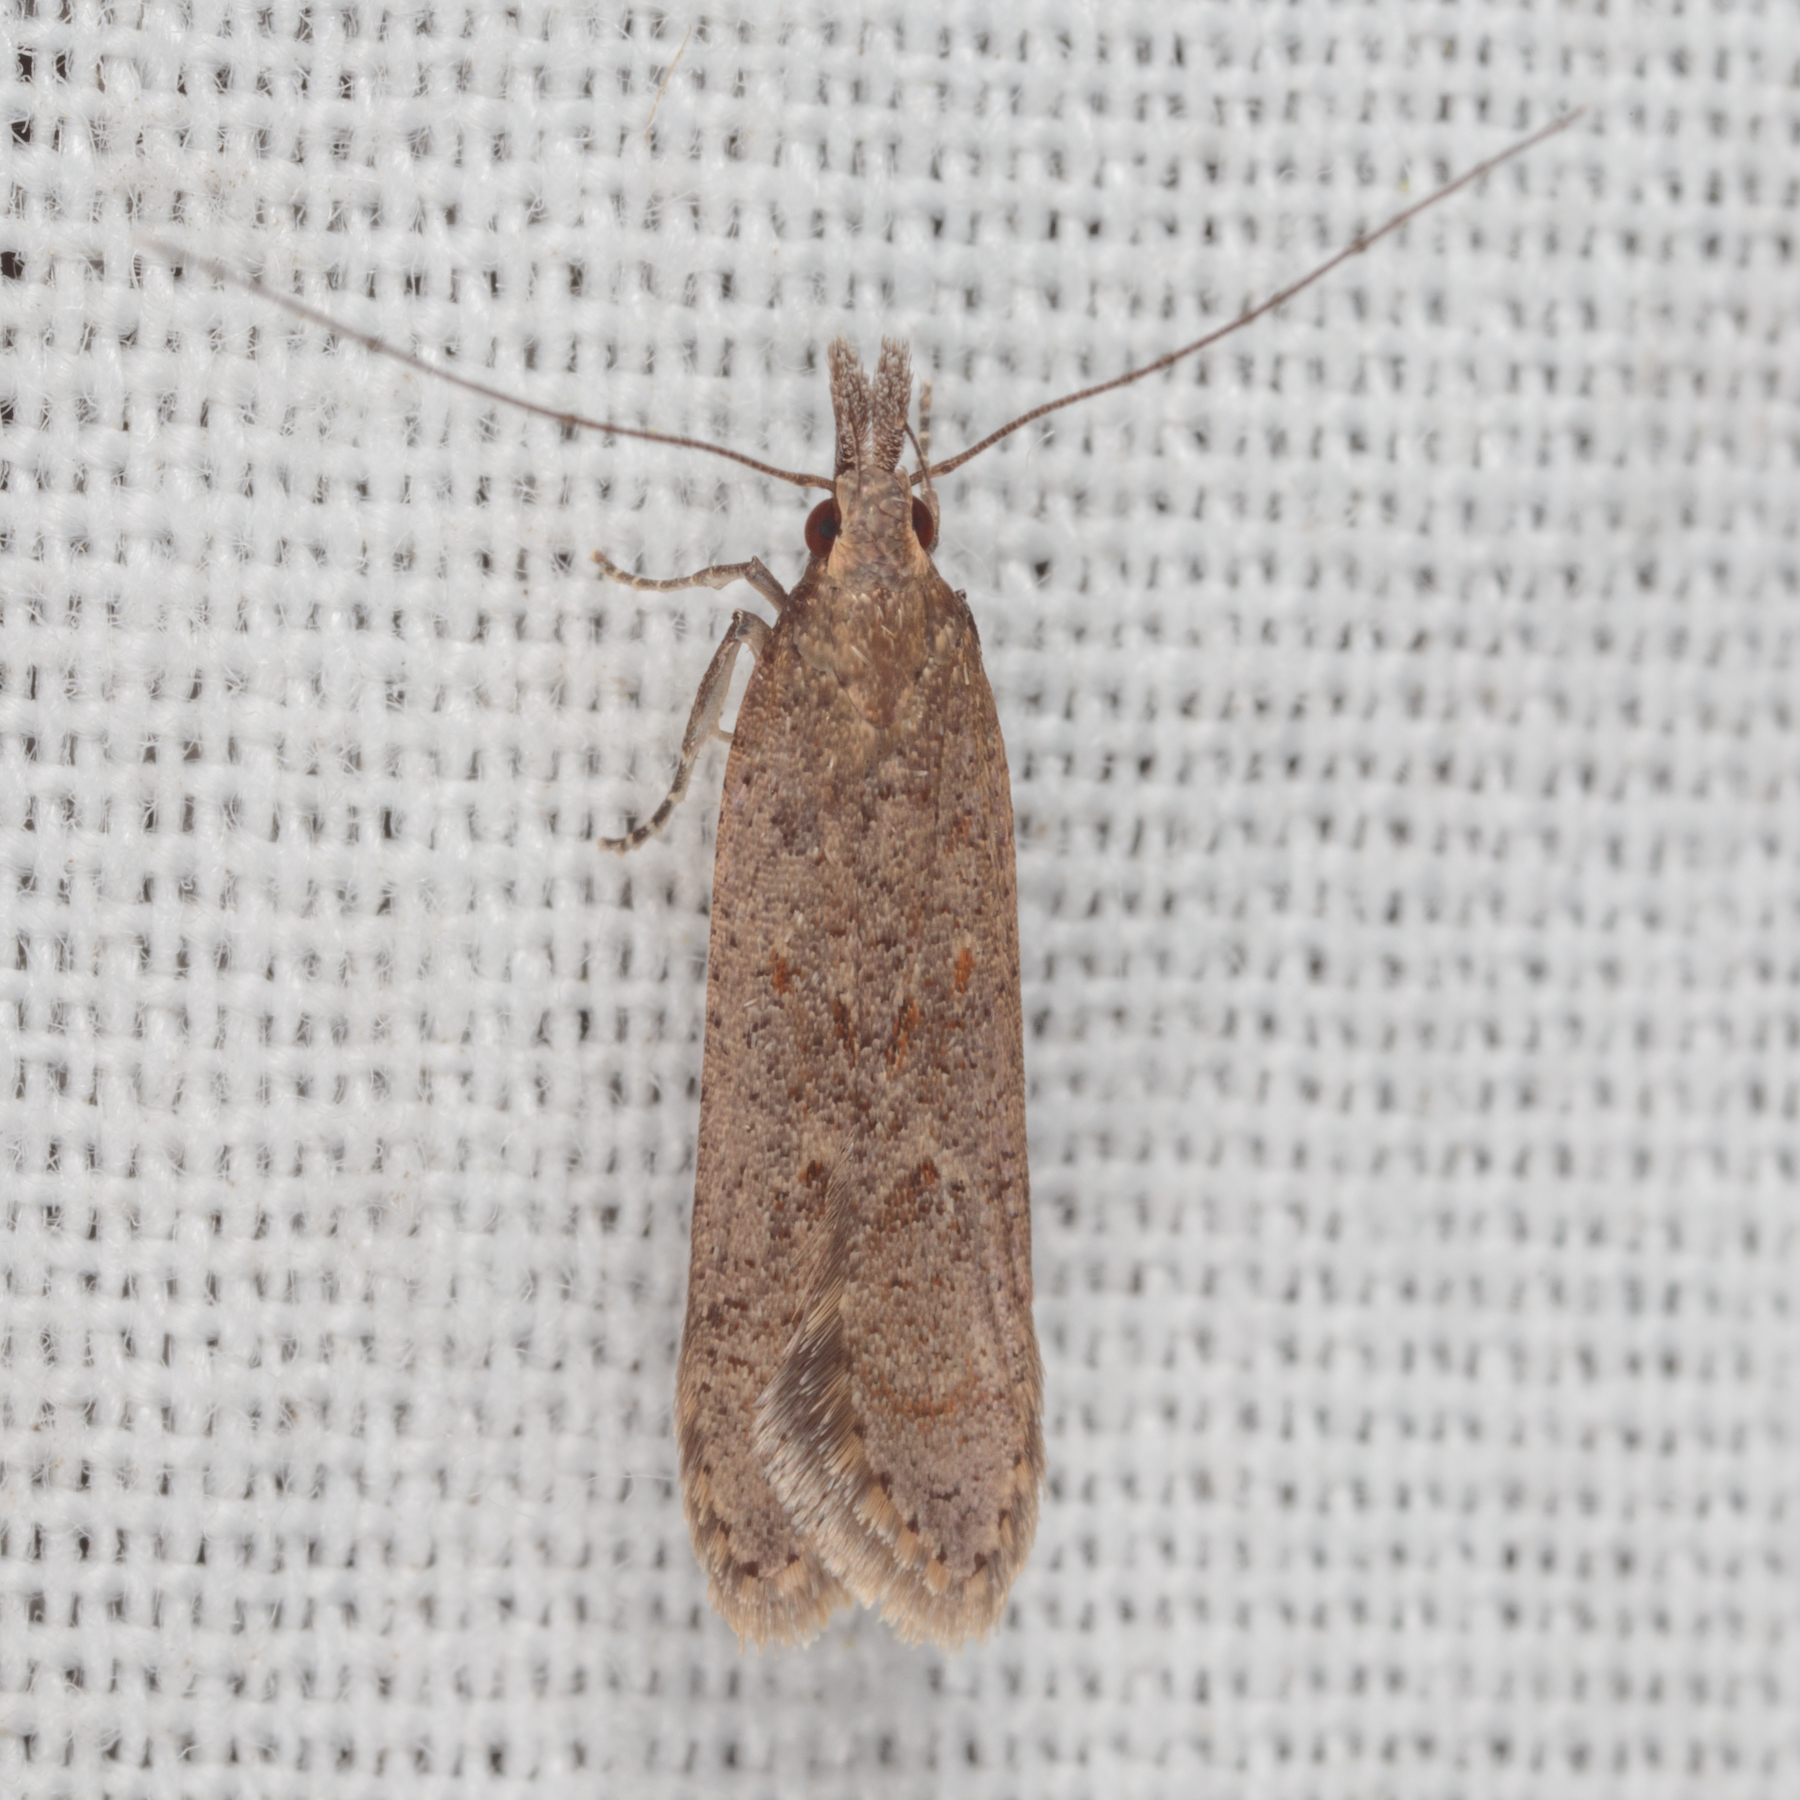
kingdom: Animalia
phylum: Arthropoda
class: Insecta
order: Lepidoptera
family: Gelechiidae
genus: Dichomeris
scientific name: Dichomeris ligulella
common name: Moth
